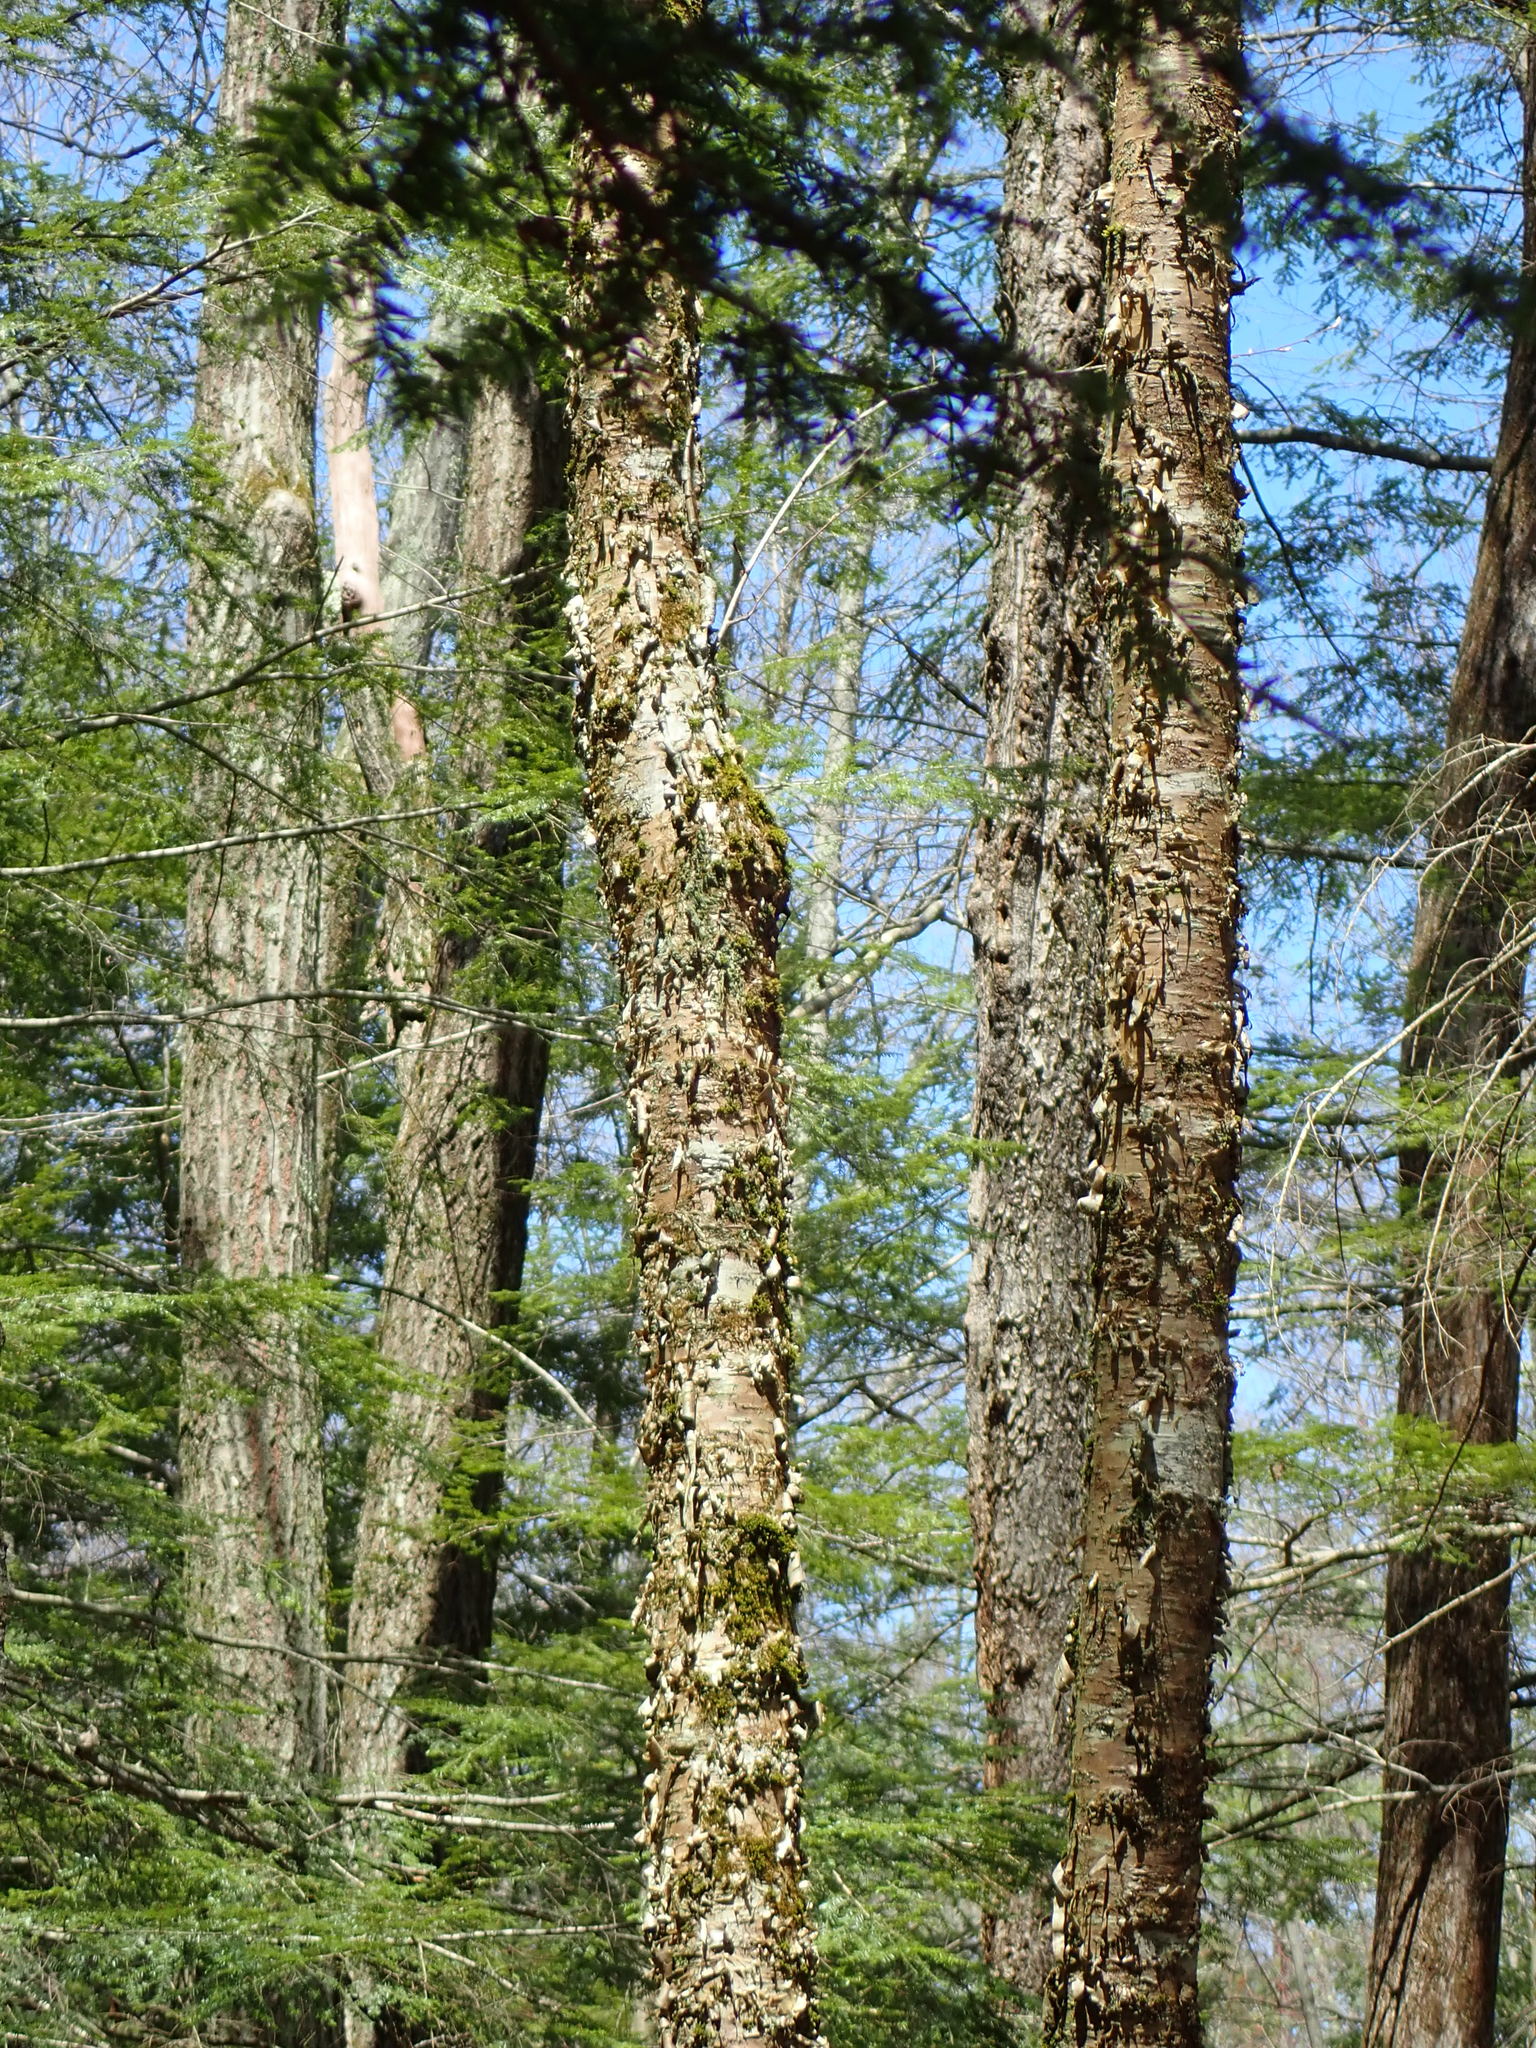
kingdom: Plantae
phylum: Tracheophyta
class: Magnoliopsida
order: Fagales
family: Betulaceae
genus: Betula
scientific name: Betula alleghaniensis
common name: Yellow birch
